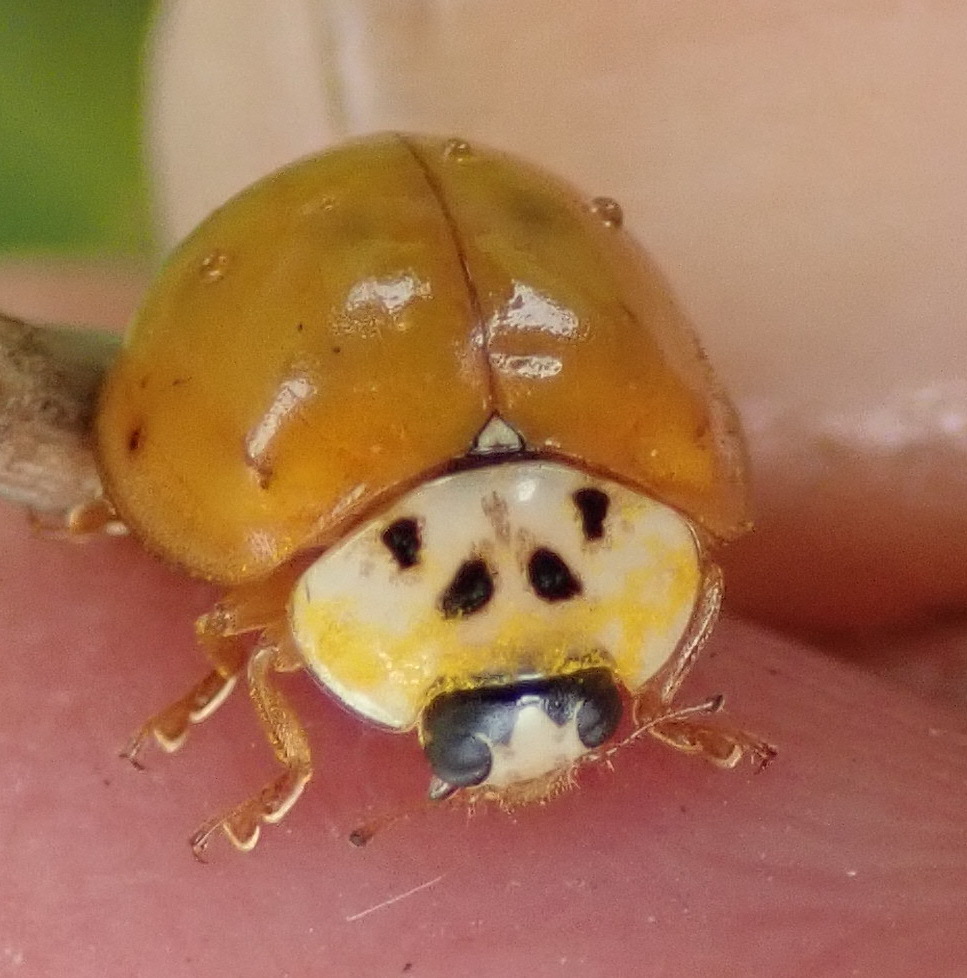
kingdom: Animalia
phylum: Arthropoda
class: Insecta
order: Coleoptera
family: Coccinellidae
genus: Harmonia
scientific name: Harmonia axyridis
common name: Harlequin ladybird
